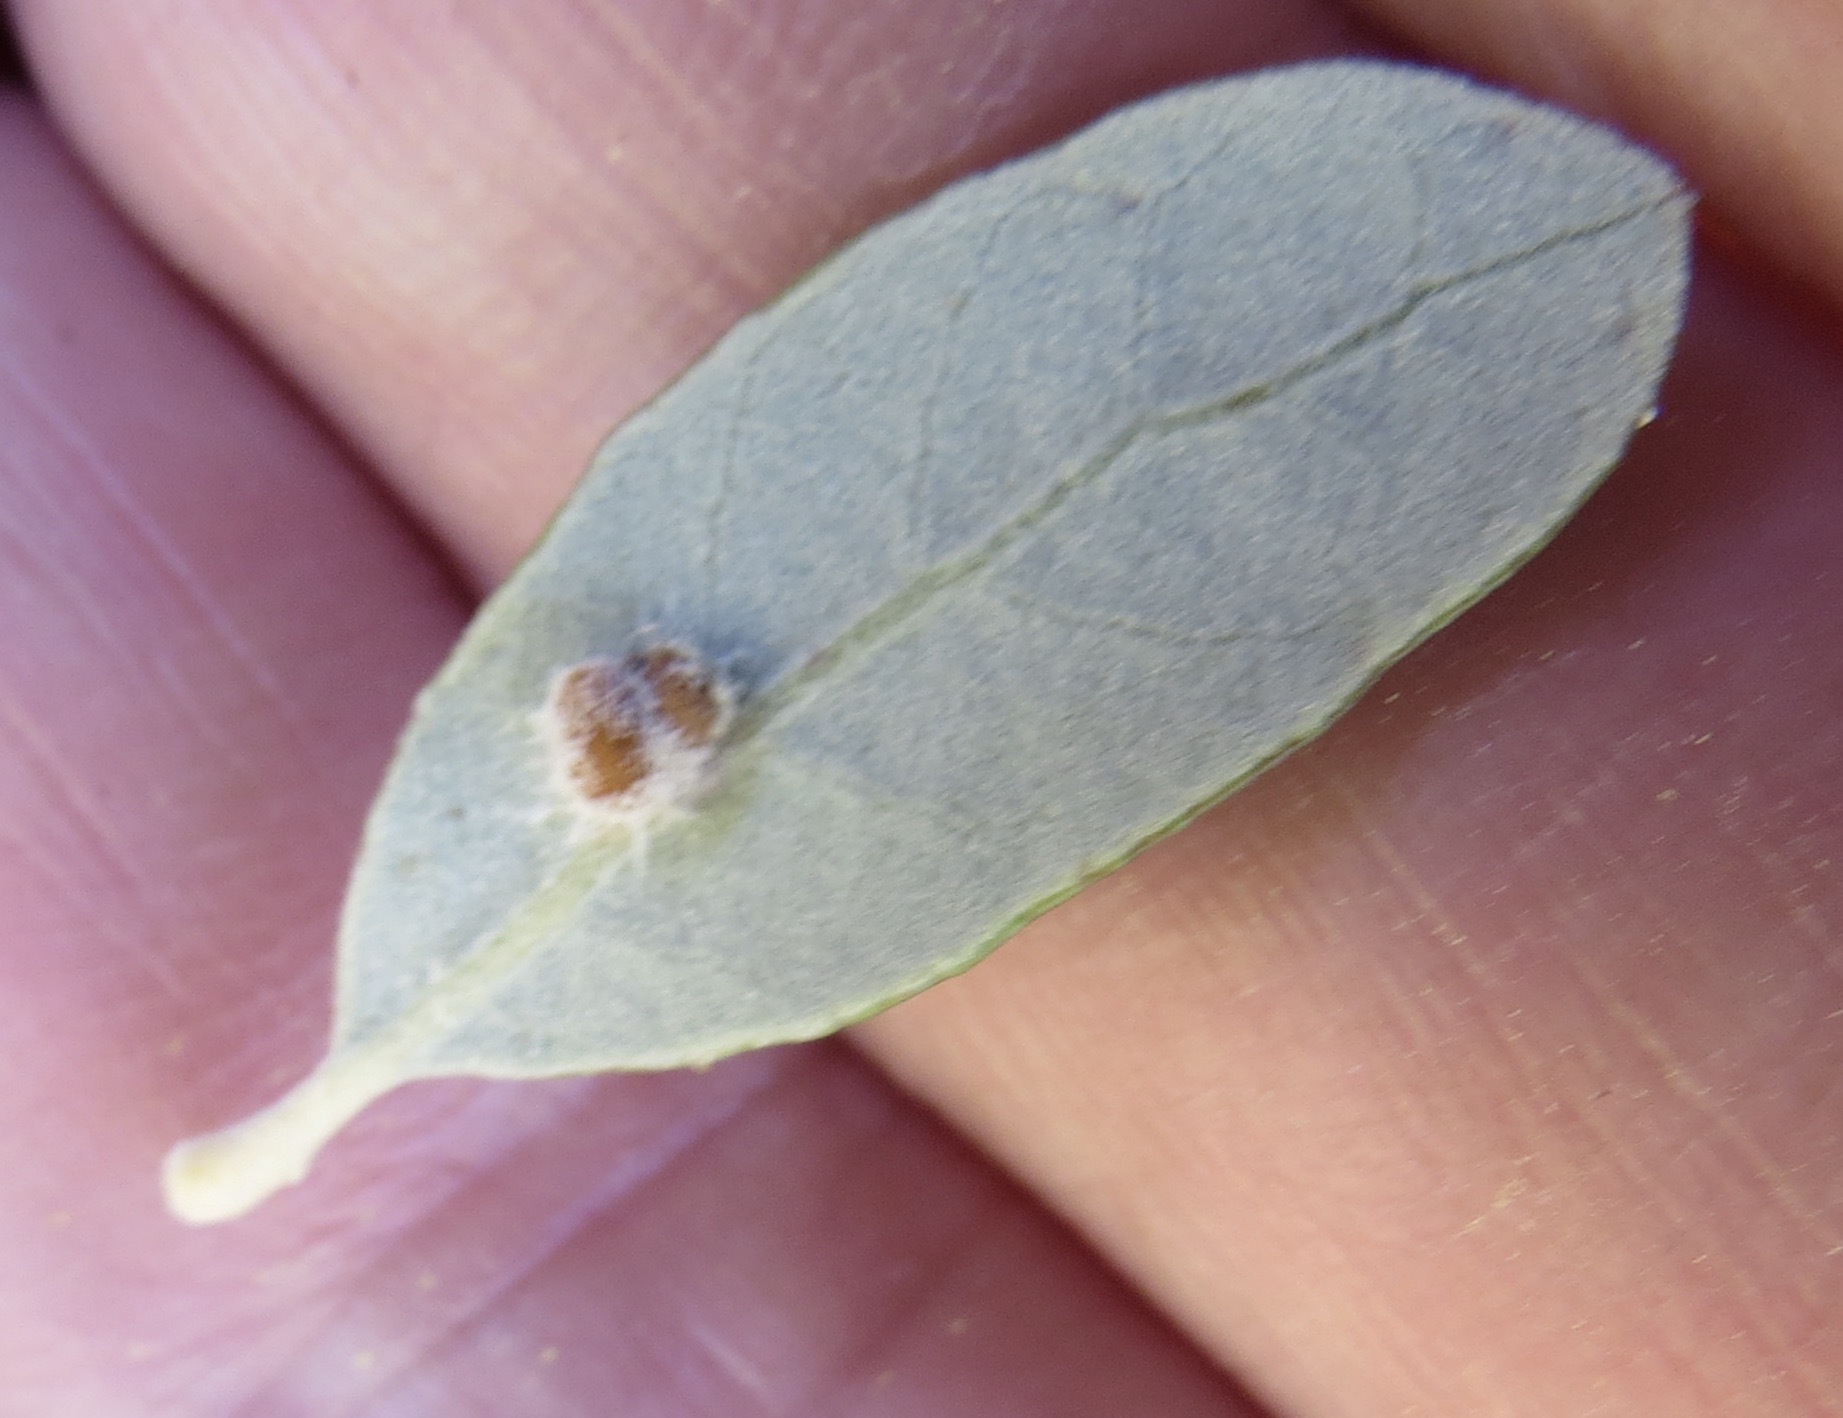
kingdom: Animalia
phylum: Arthropoda
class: Insecta
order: Hymenoptera
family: Cynipidae
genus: Dryocosmus
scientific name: Dryocosmus
